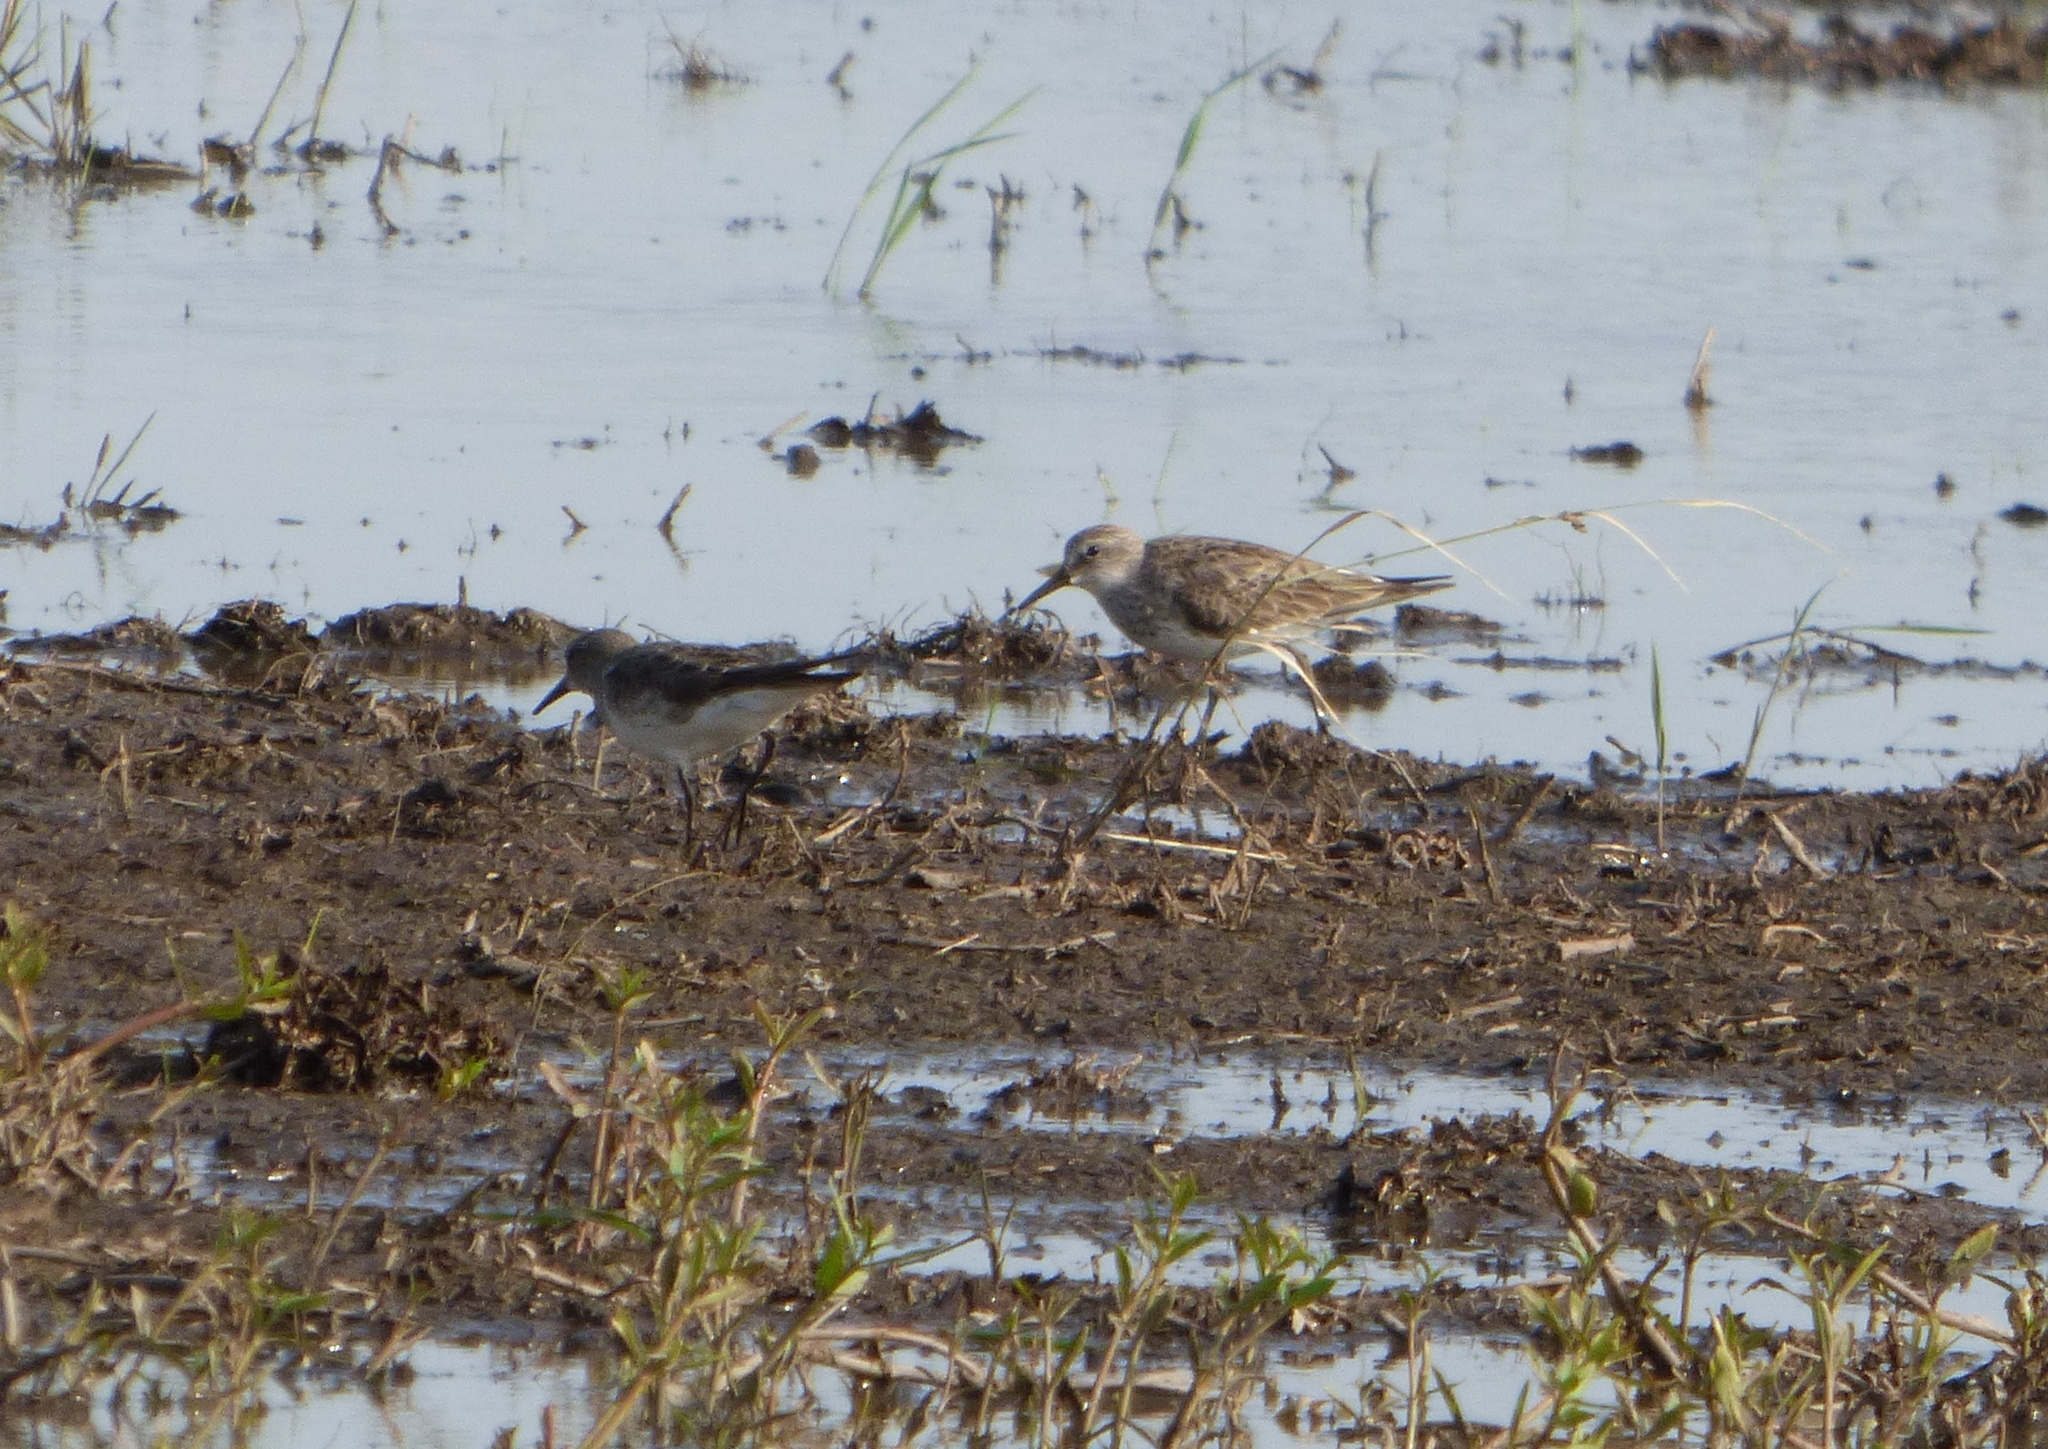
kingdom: Animalia
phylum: Chordata
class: Aves
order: Charadriiformes
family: Scolopacidae
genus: Calidris
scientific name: Calidris fuscicollis
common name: White-rumped sandpiper
